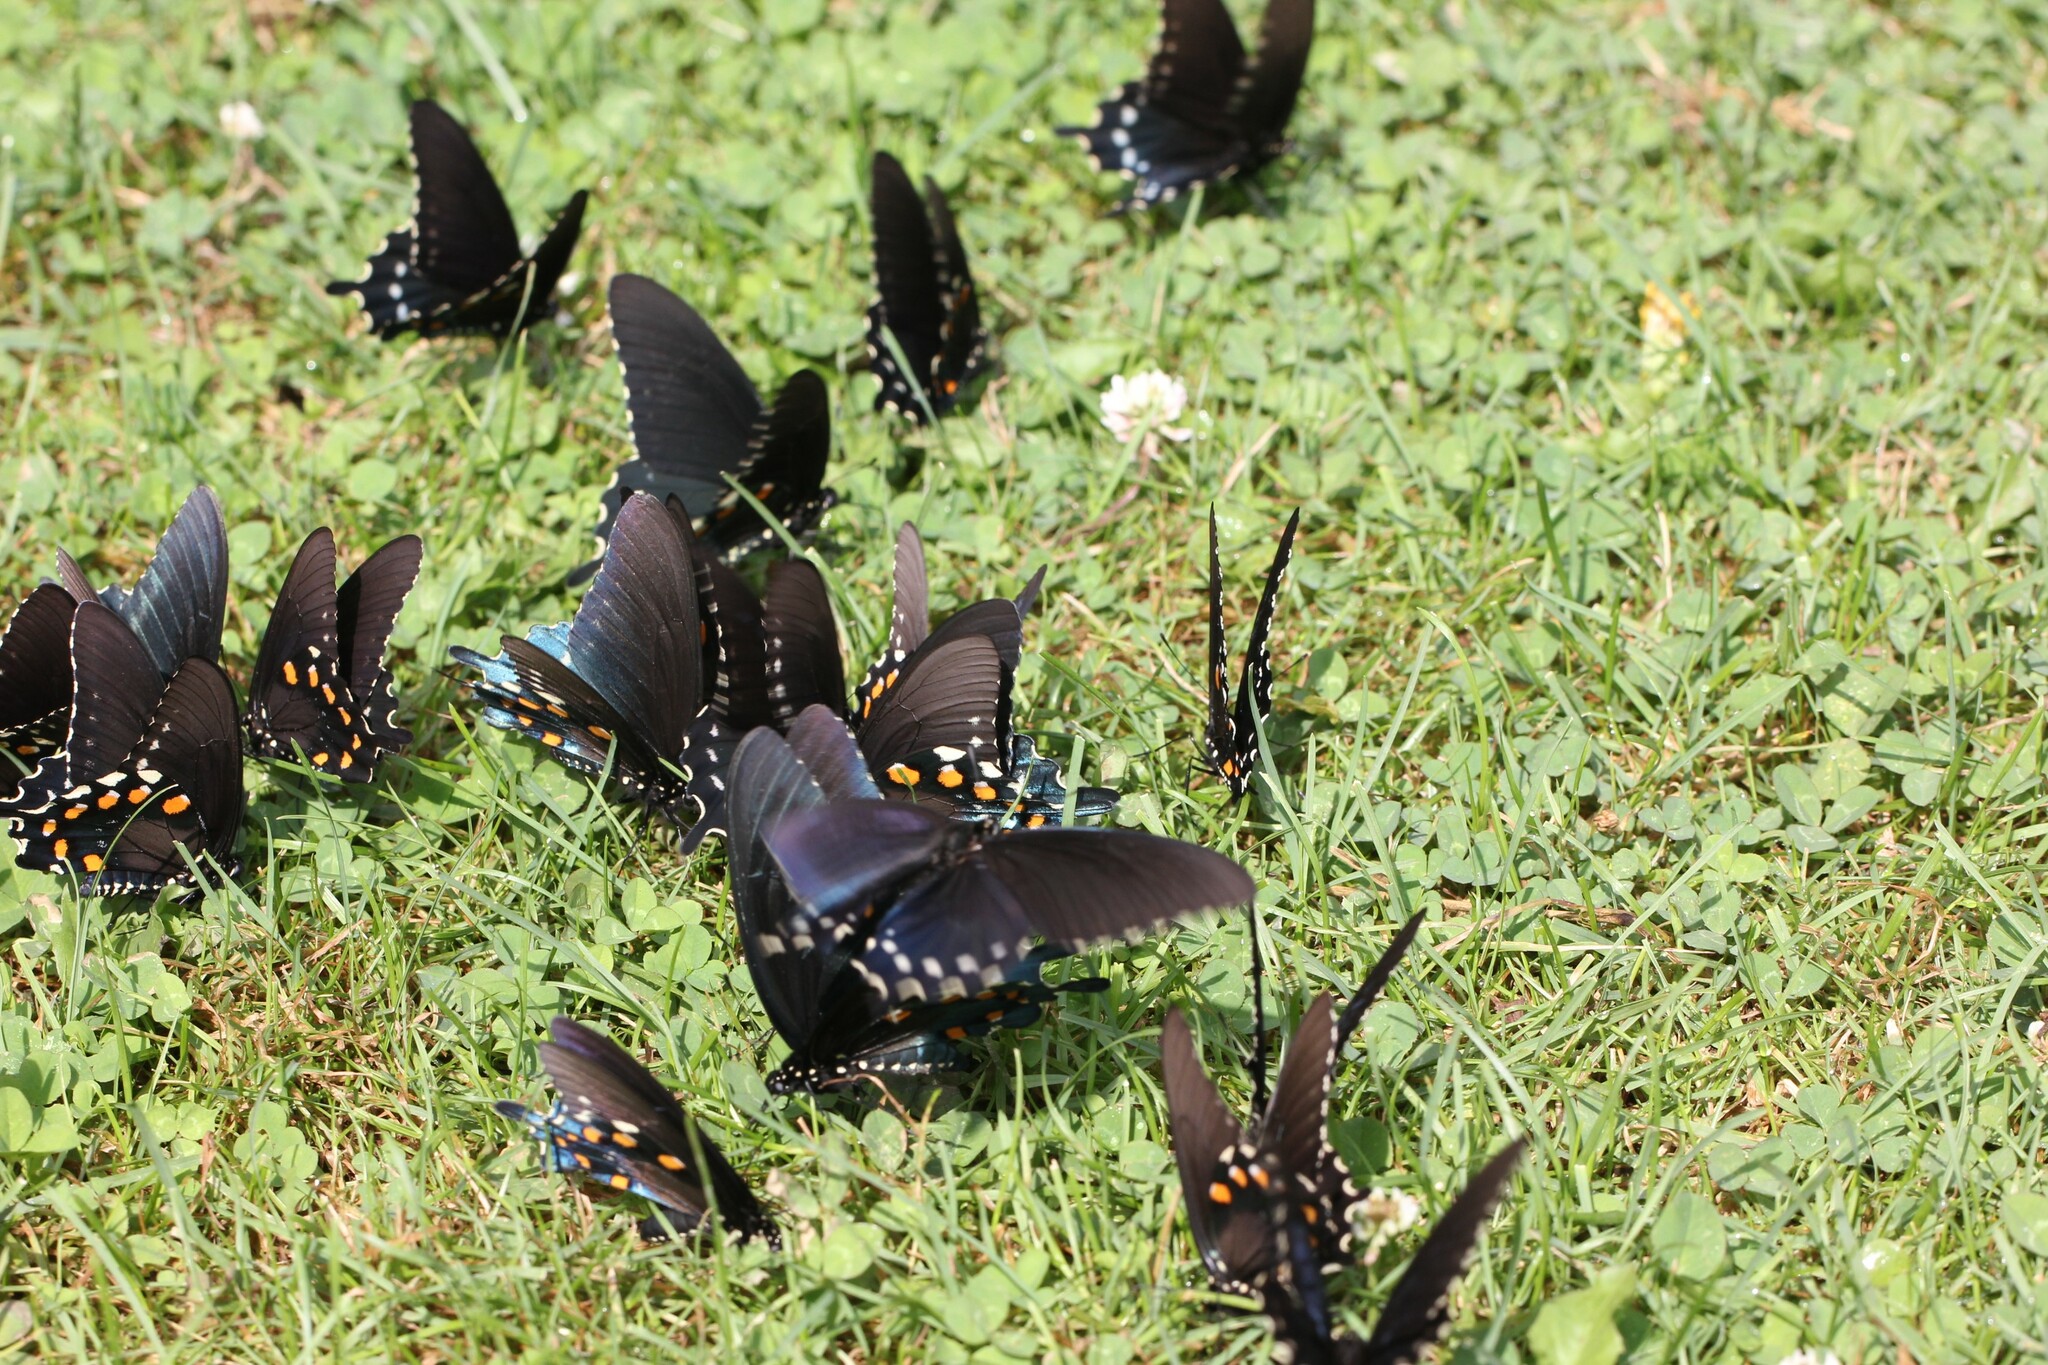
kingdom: Animalia
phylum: Arthropoda
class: Insecta
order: Lepidoptera
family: Papilionidae
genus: Battus
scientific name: Battus philenor
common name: Pipevine swallowtail
